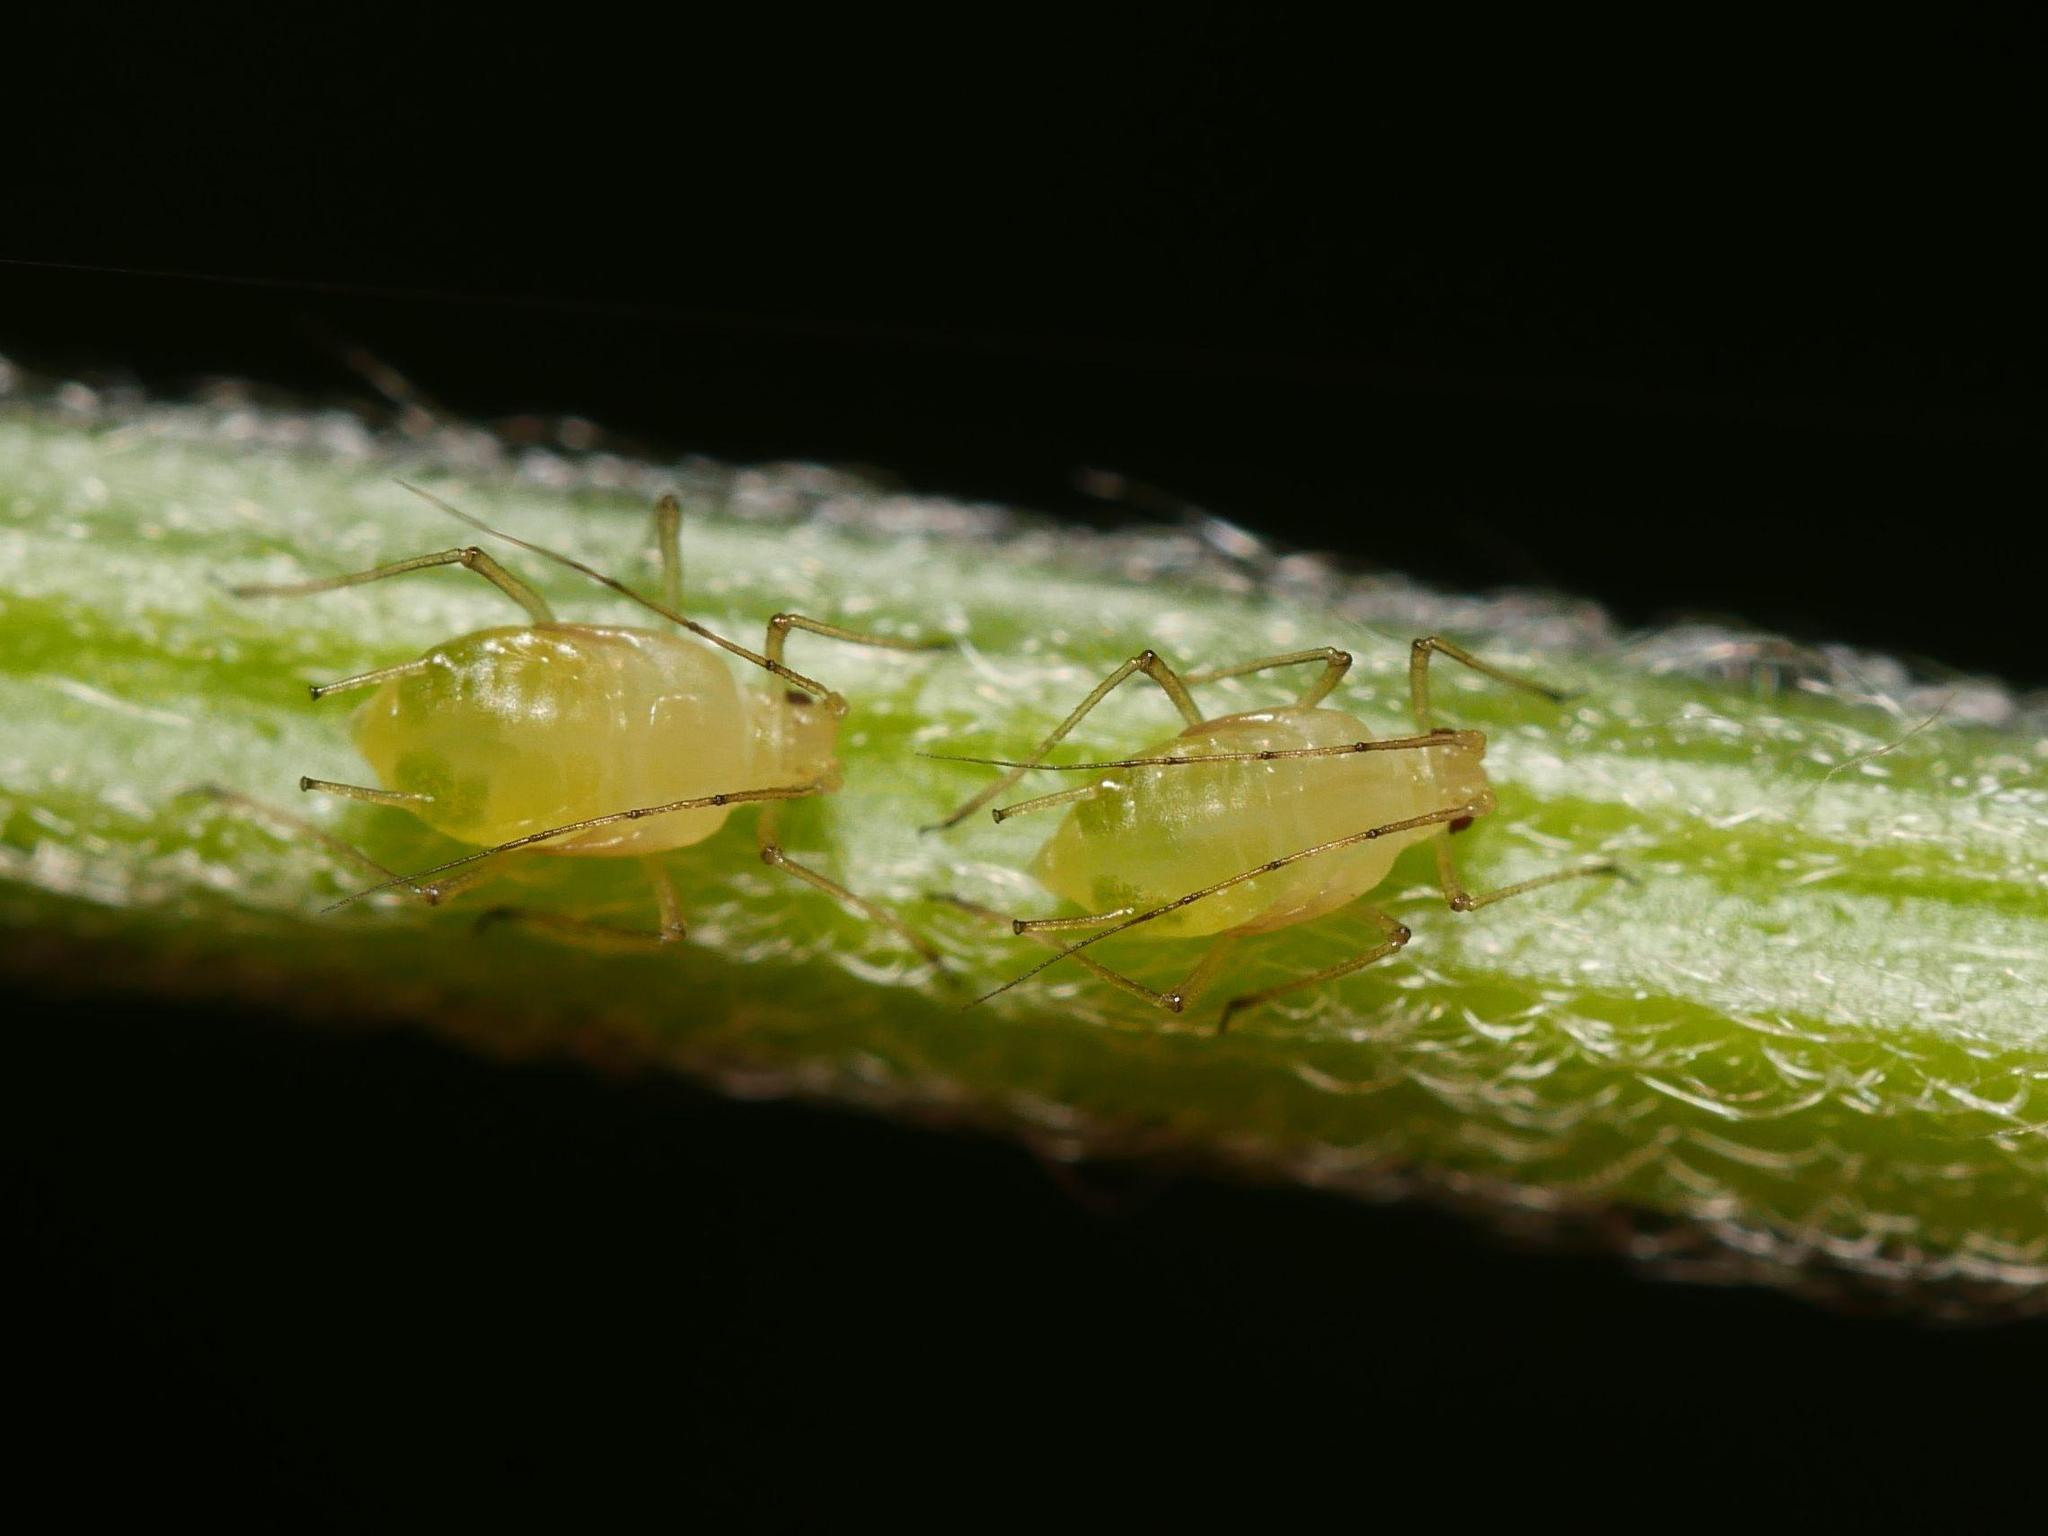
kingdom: Animalia
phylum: Arthropoda
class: Insecta
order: Hemiptera
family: Aphididae
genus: Aulacorthum
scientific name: Aulacorthum solani
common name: Foxglove aphid
